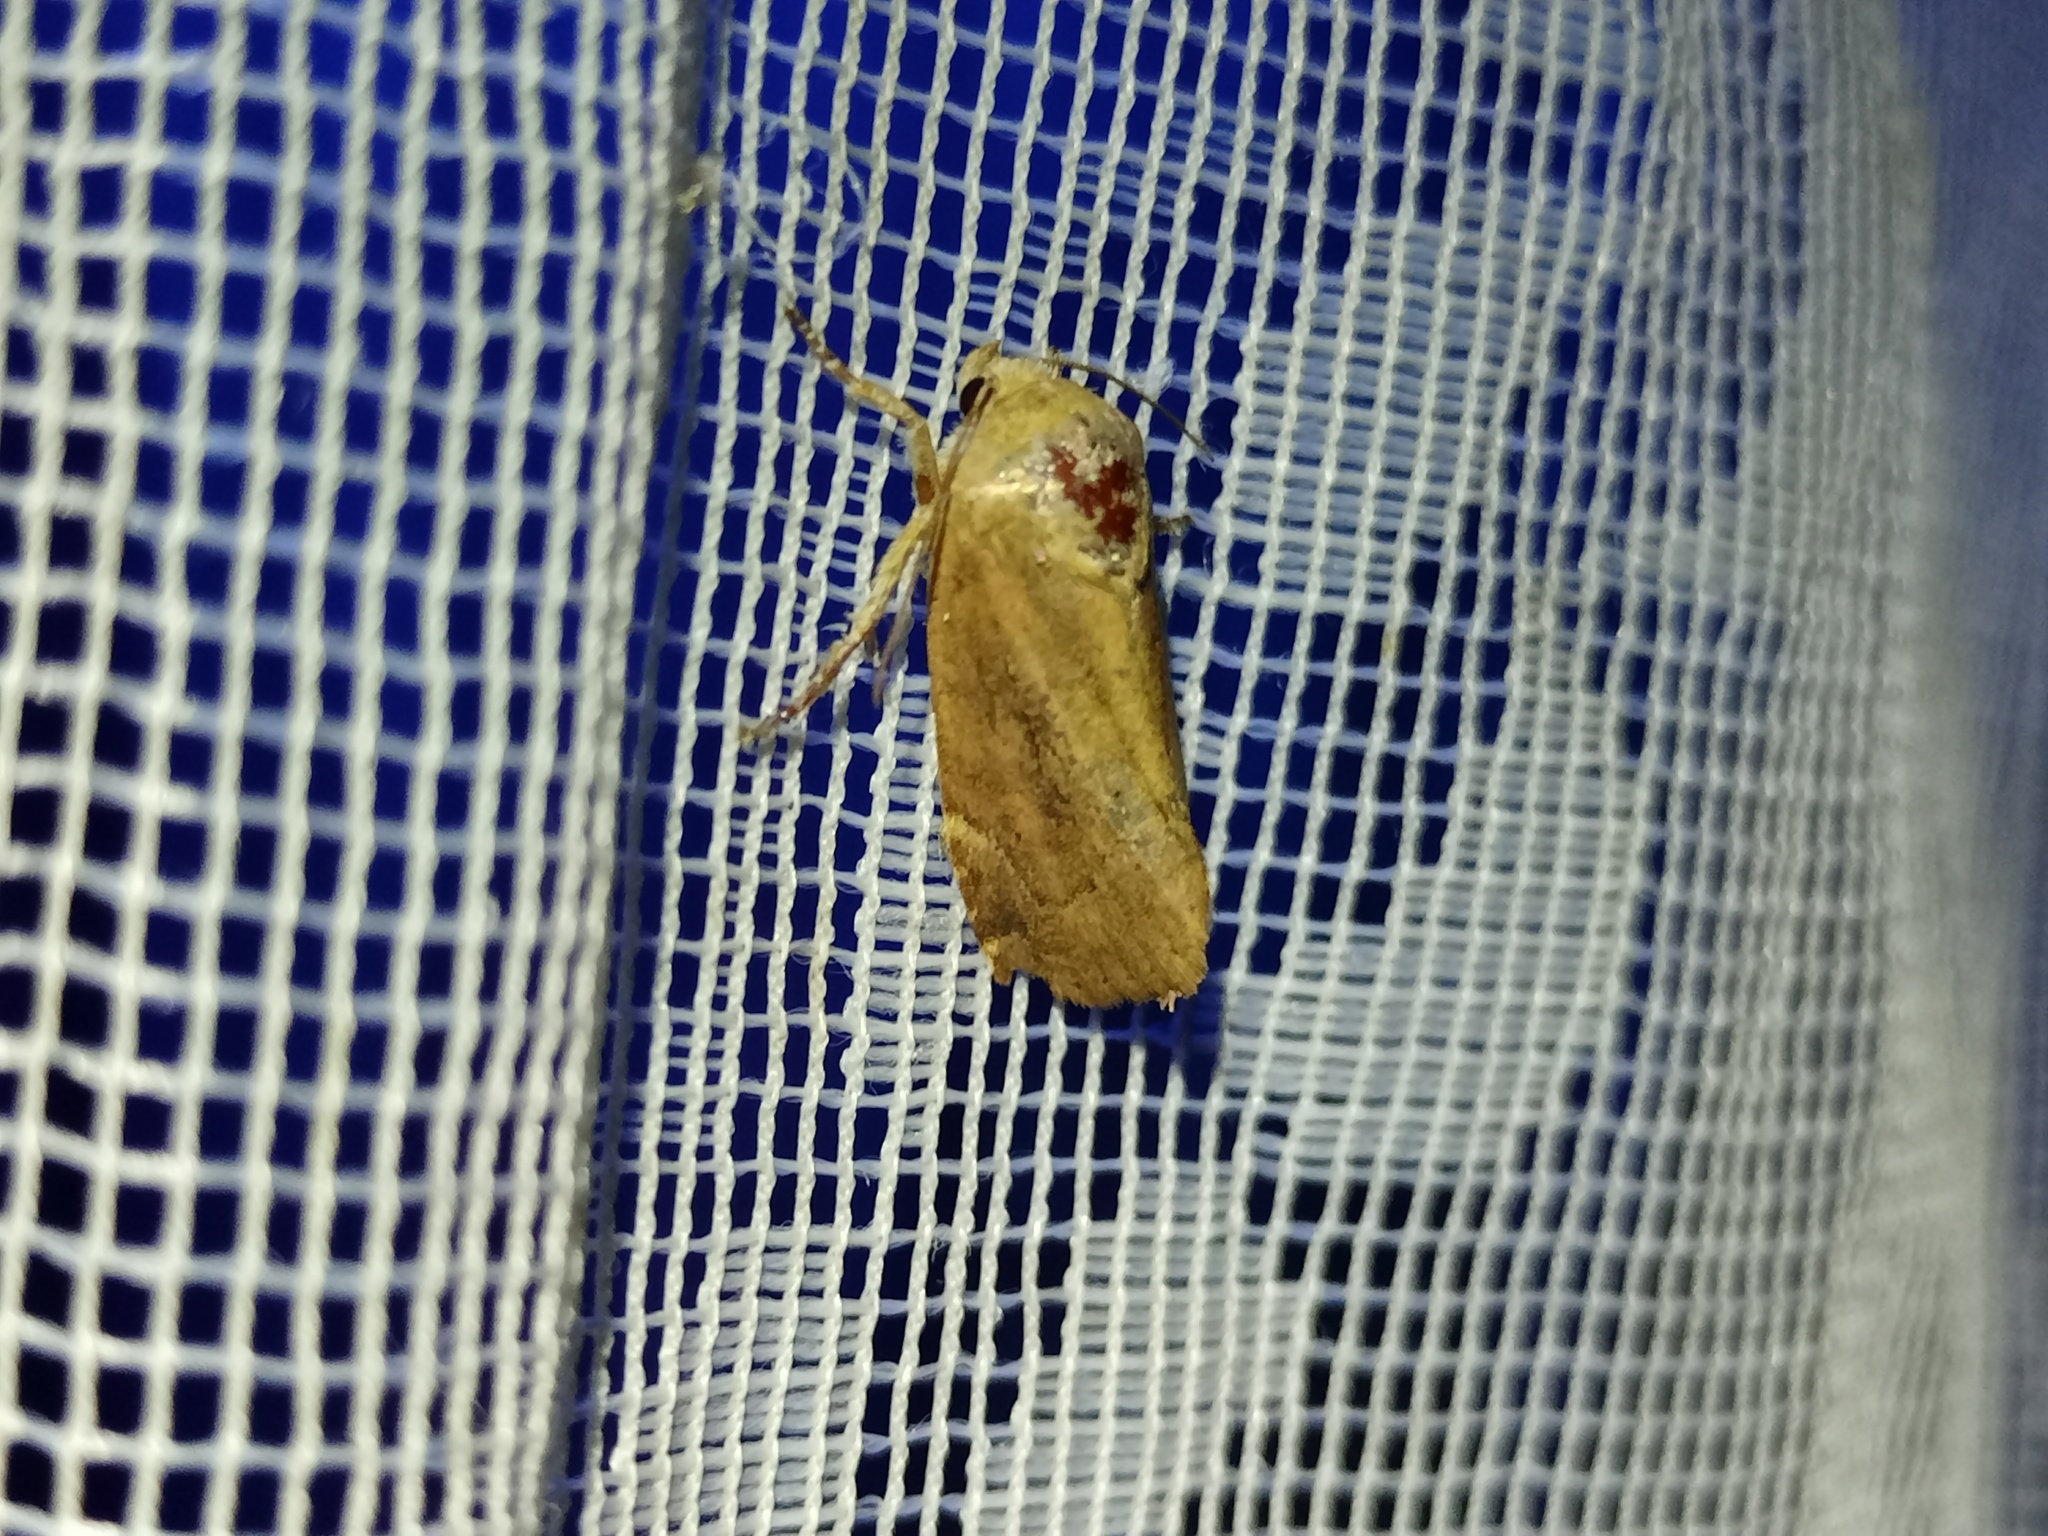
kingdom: Animalia
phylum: Arthropoda
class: Insecta
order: Lepidoptera
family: Noctuidae
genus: Cosmia
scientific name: Cosmia affinis
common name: Lesser-spotted pinion
